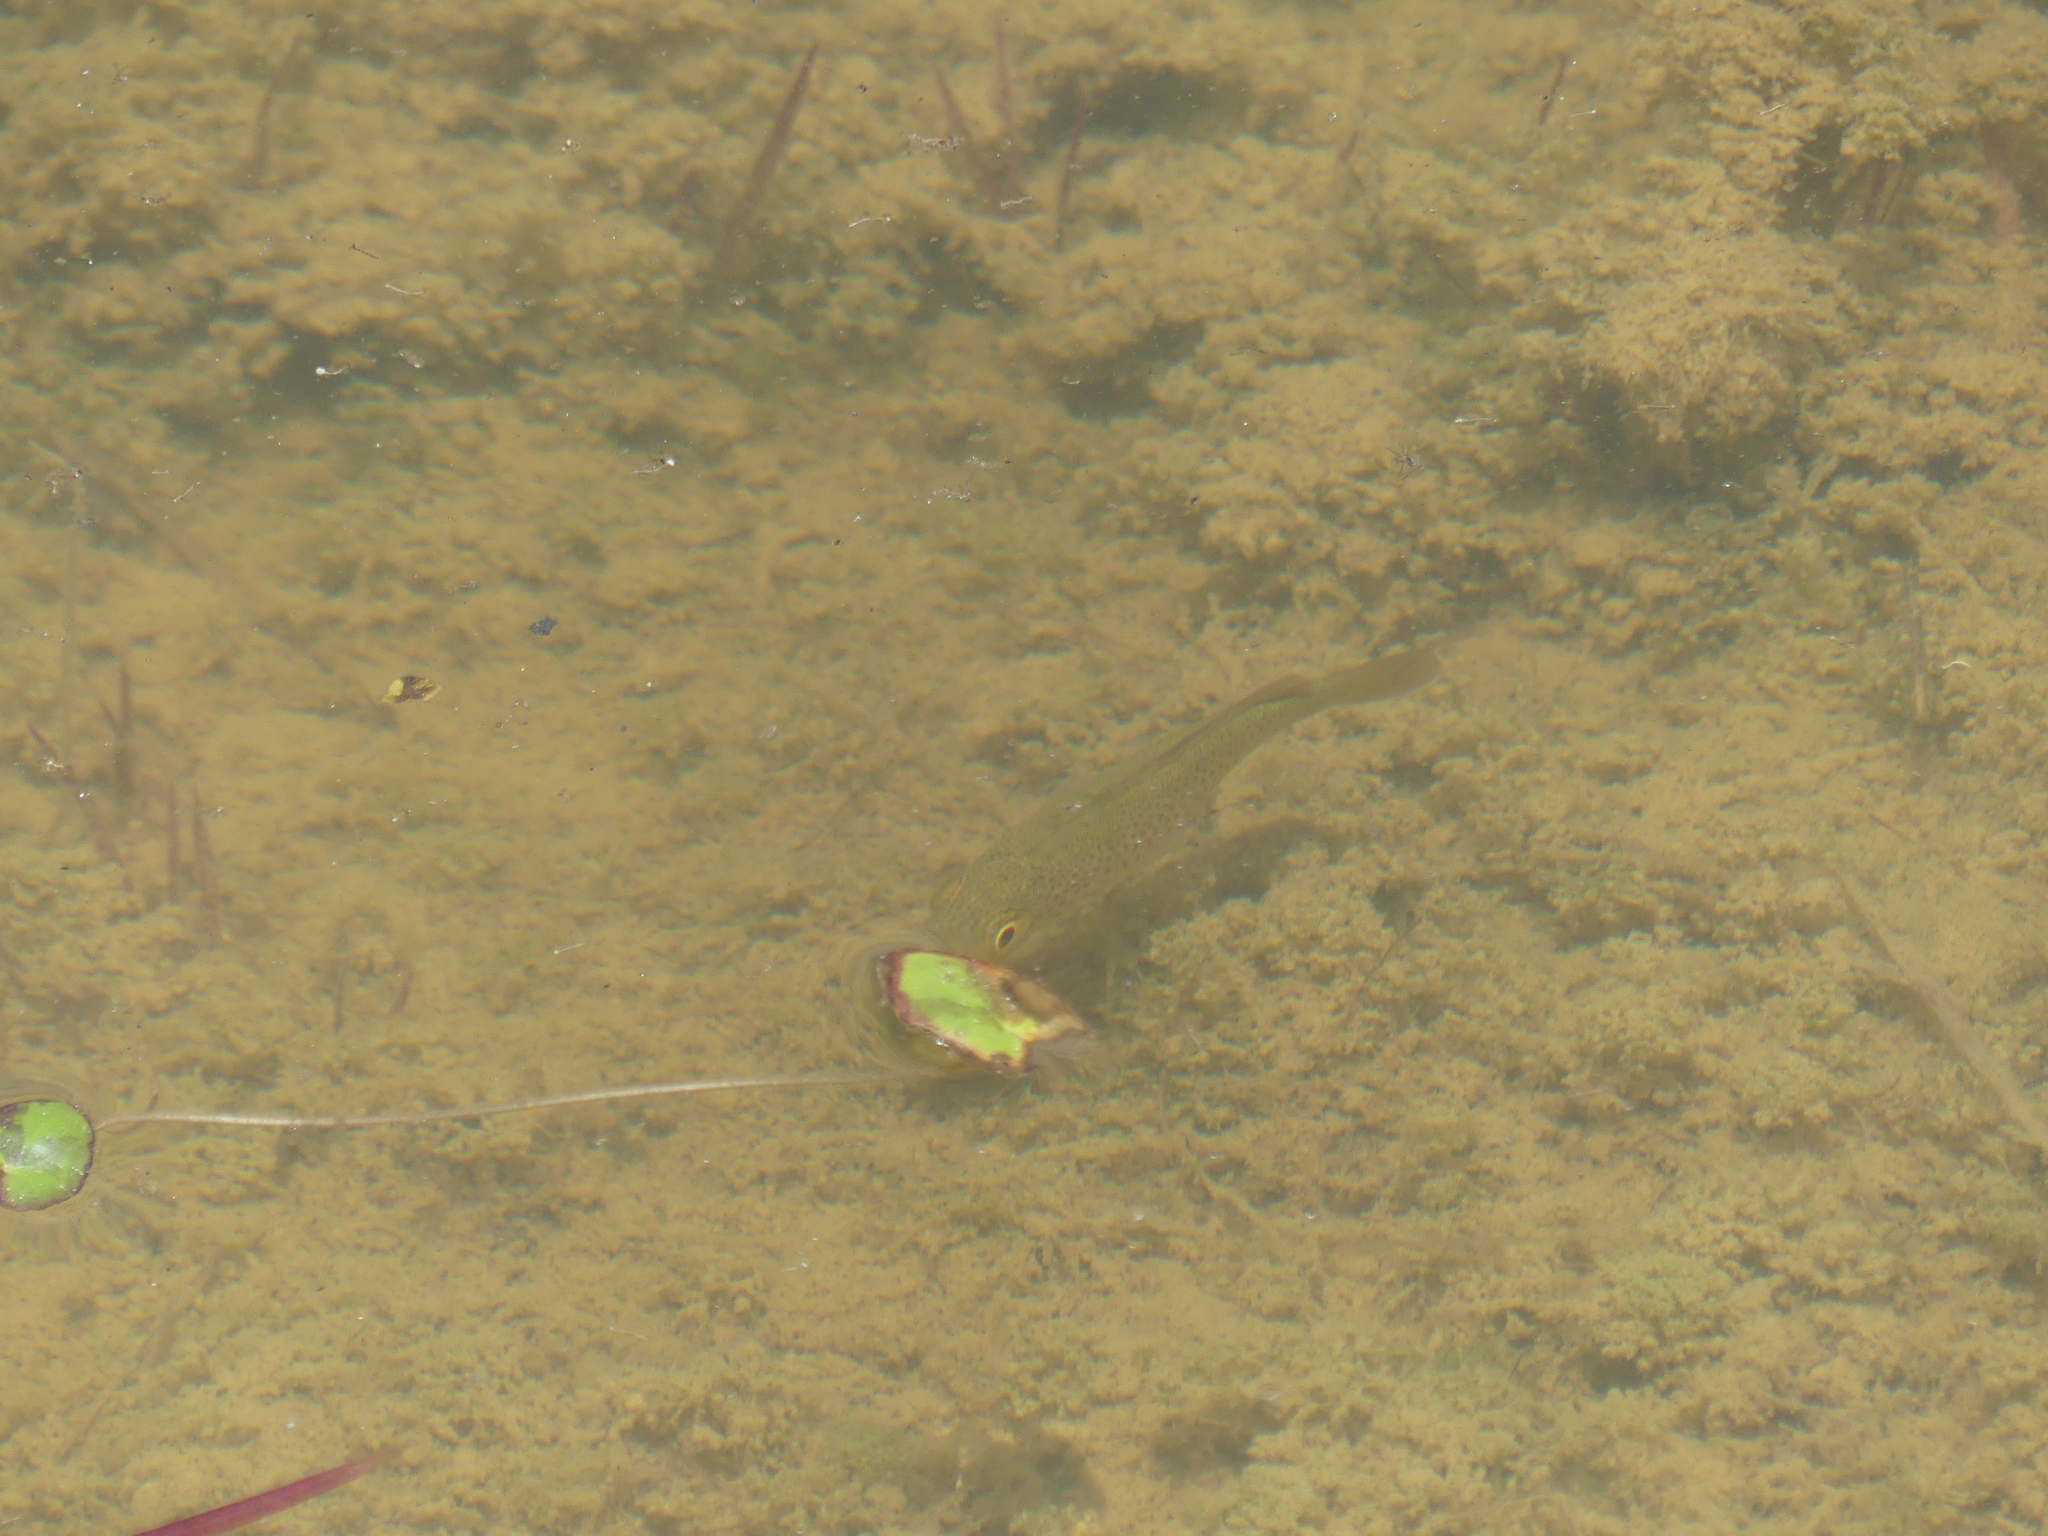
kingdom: Animalia
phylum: Chordata
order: Perciformes
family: Terapontidae
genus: Leiopotherapon
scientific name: Leiopotherapon unicolor
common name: Bobby
